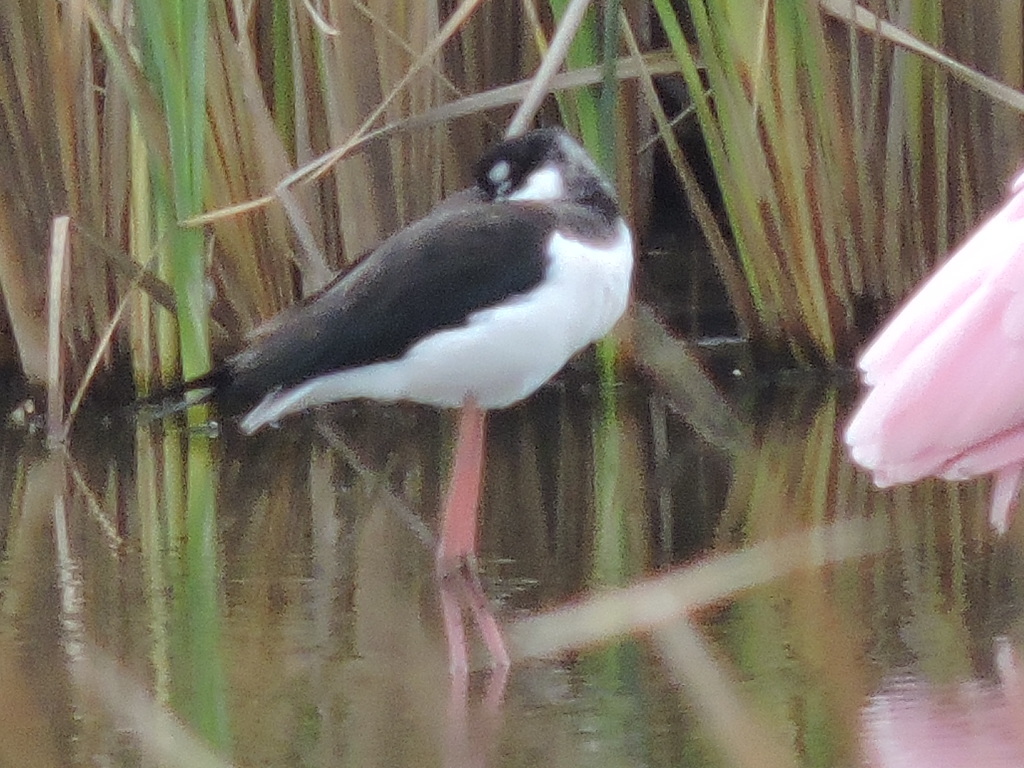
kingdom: Animalia
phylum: Chordata
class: Aves
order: Charadriiformes
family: Recurvirostridae
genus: Himantopus
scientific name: Himantopus mexicanus
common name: Black-necked stilt
